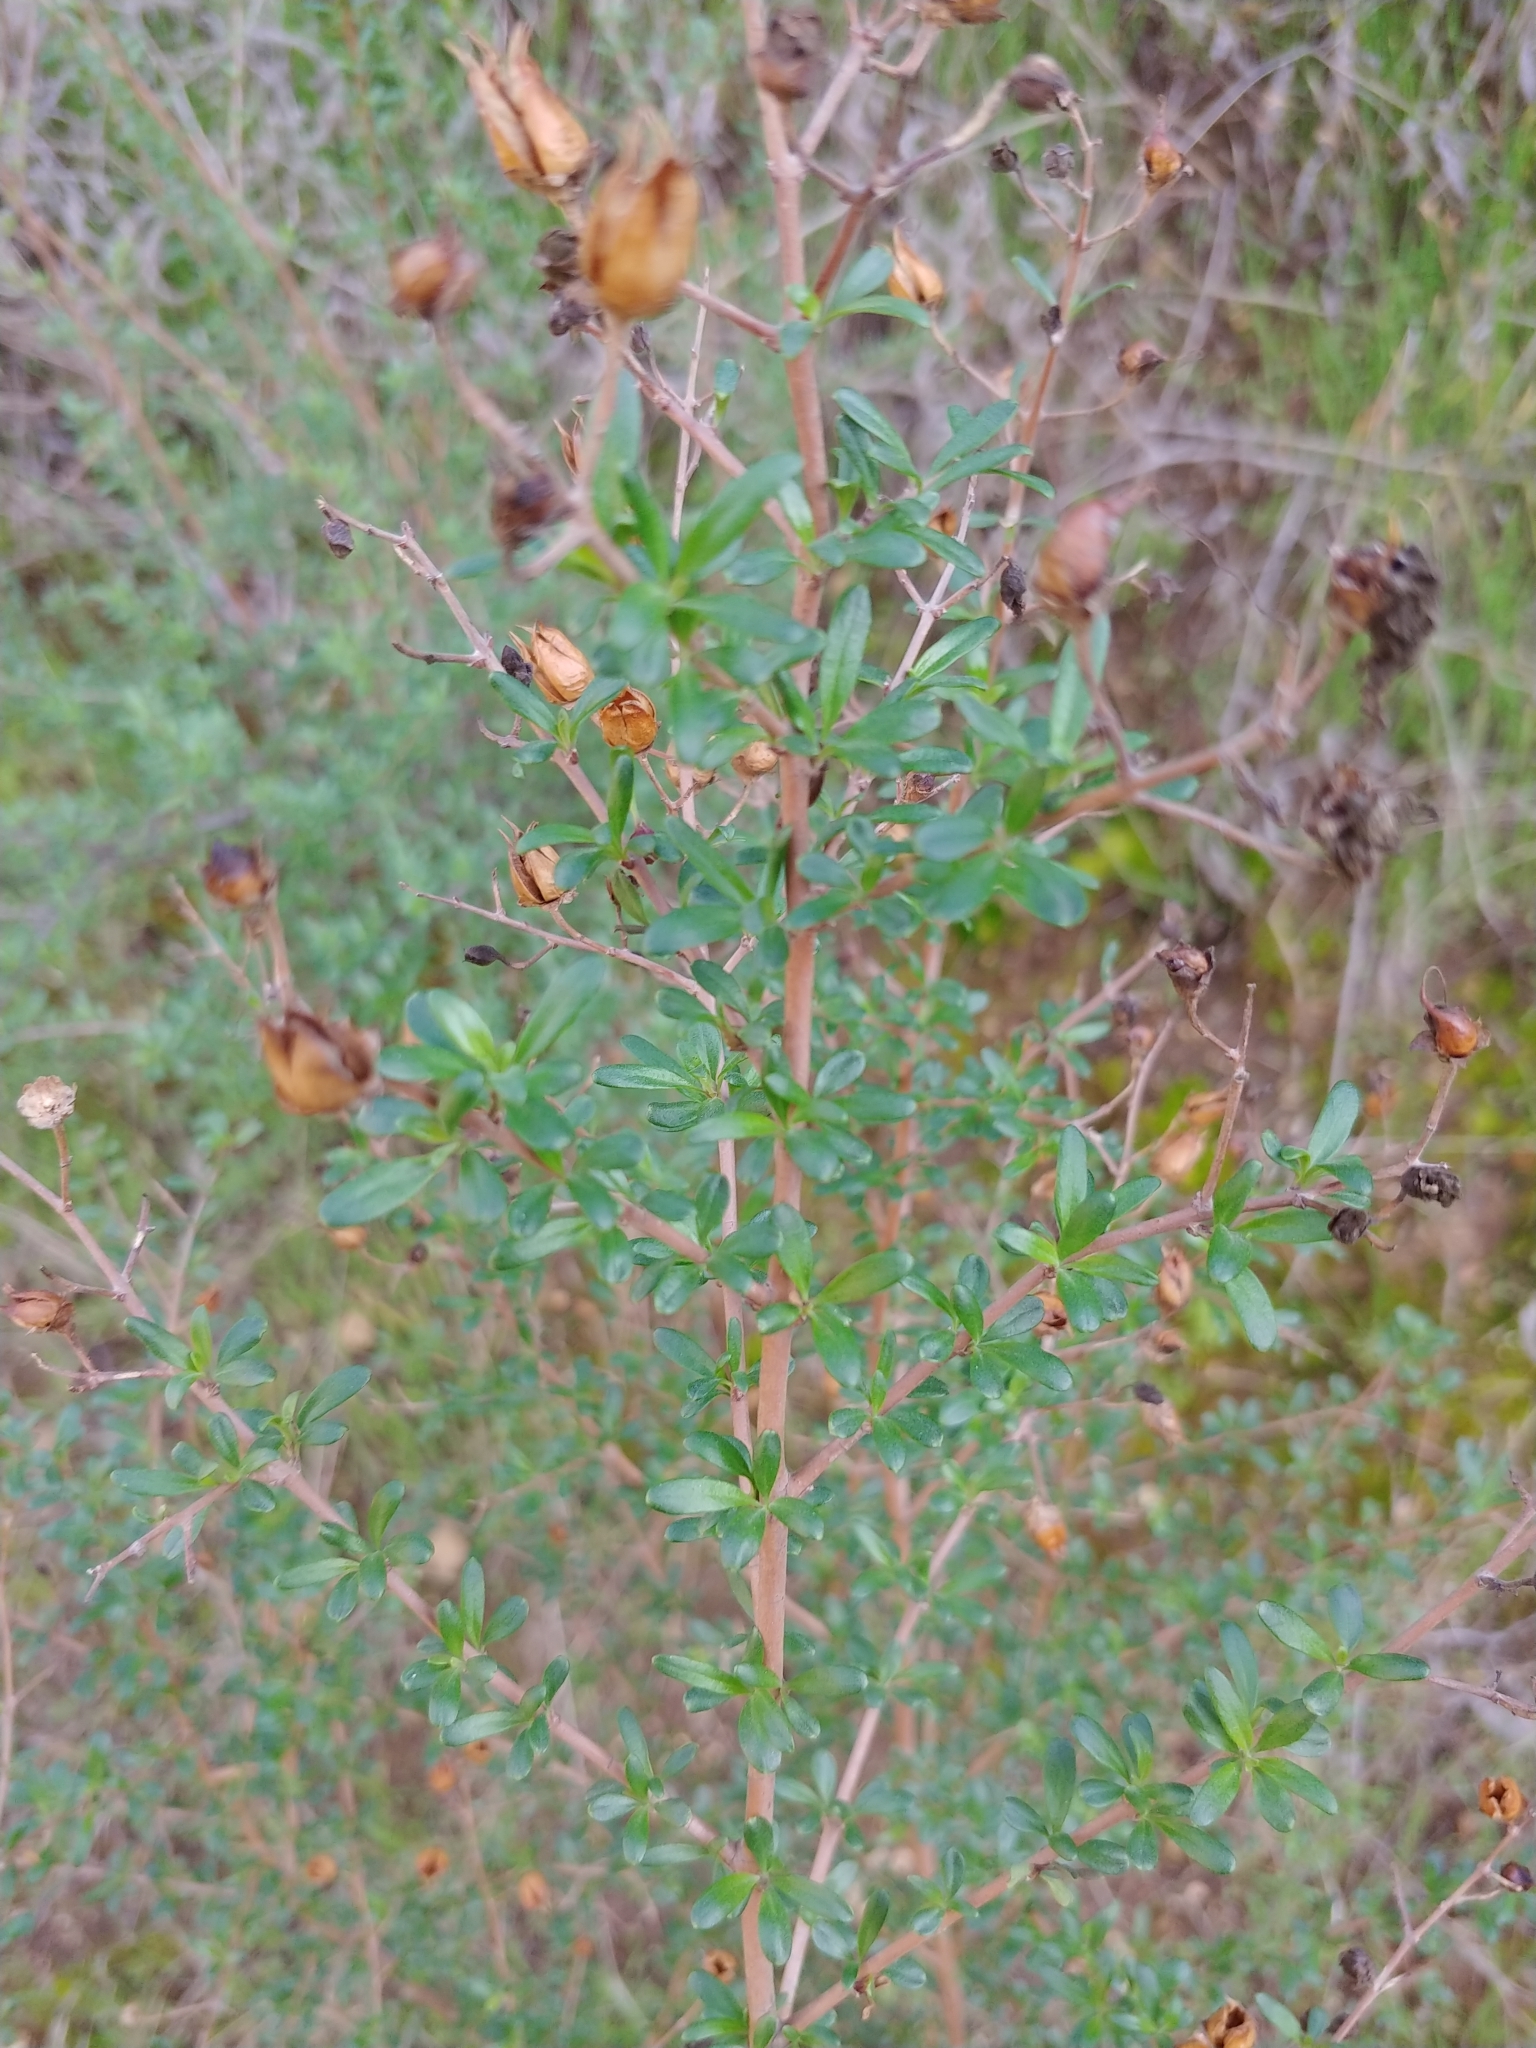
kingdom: Plantae
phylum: Tracheophyta
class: Magnoliopsida
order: Lamiales
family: Plantaginaceae
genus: Keckiella
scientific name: Keckiella antirrhinoides
